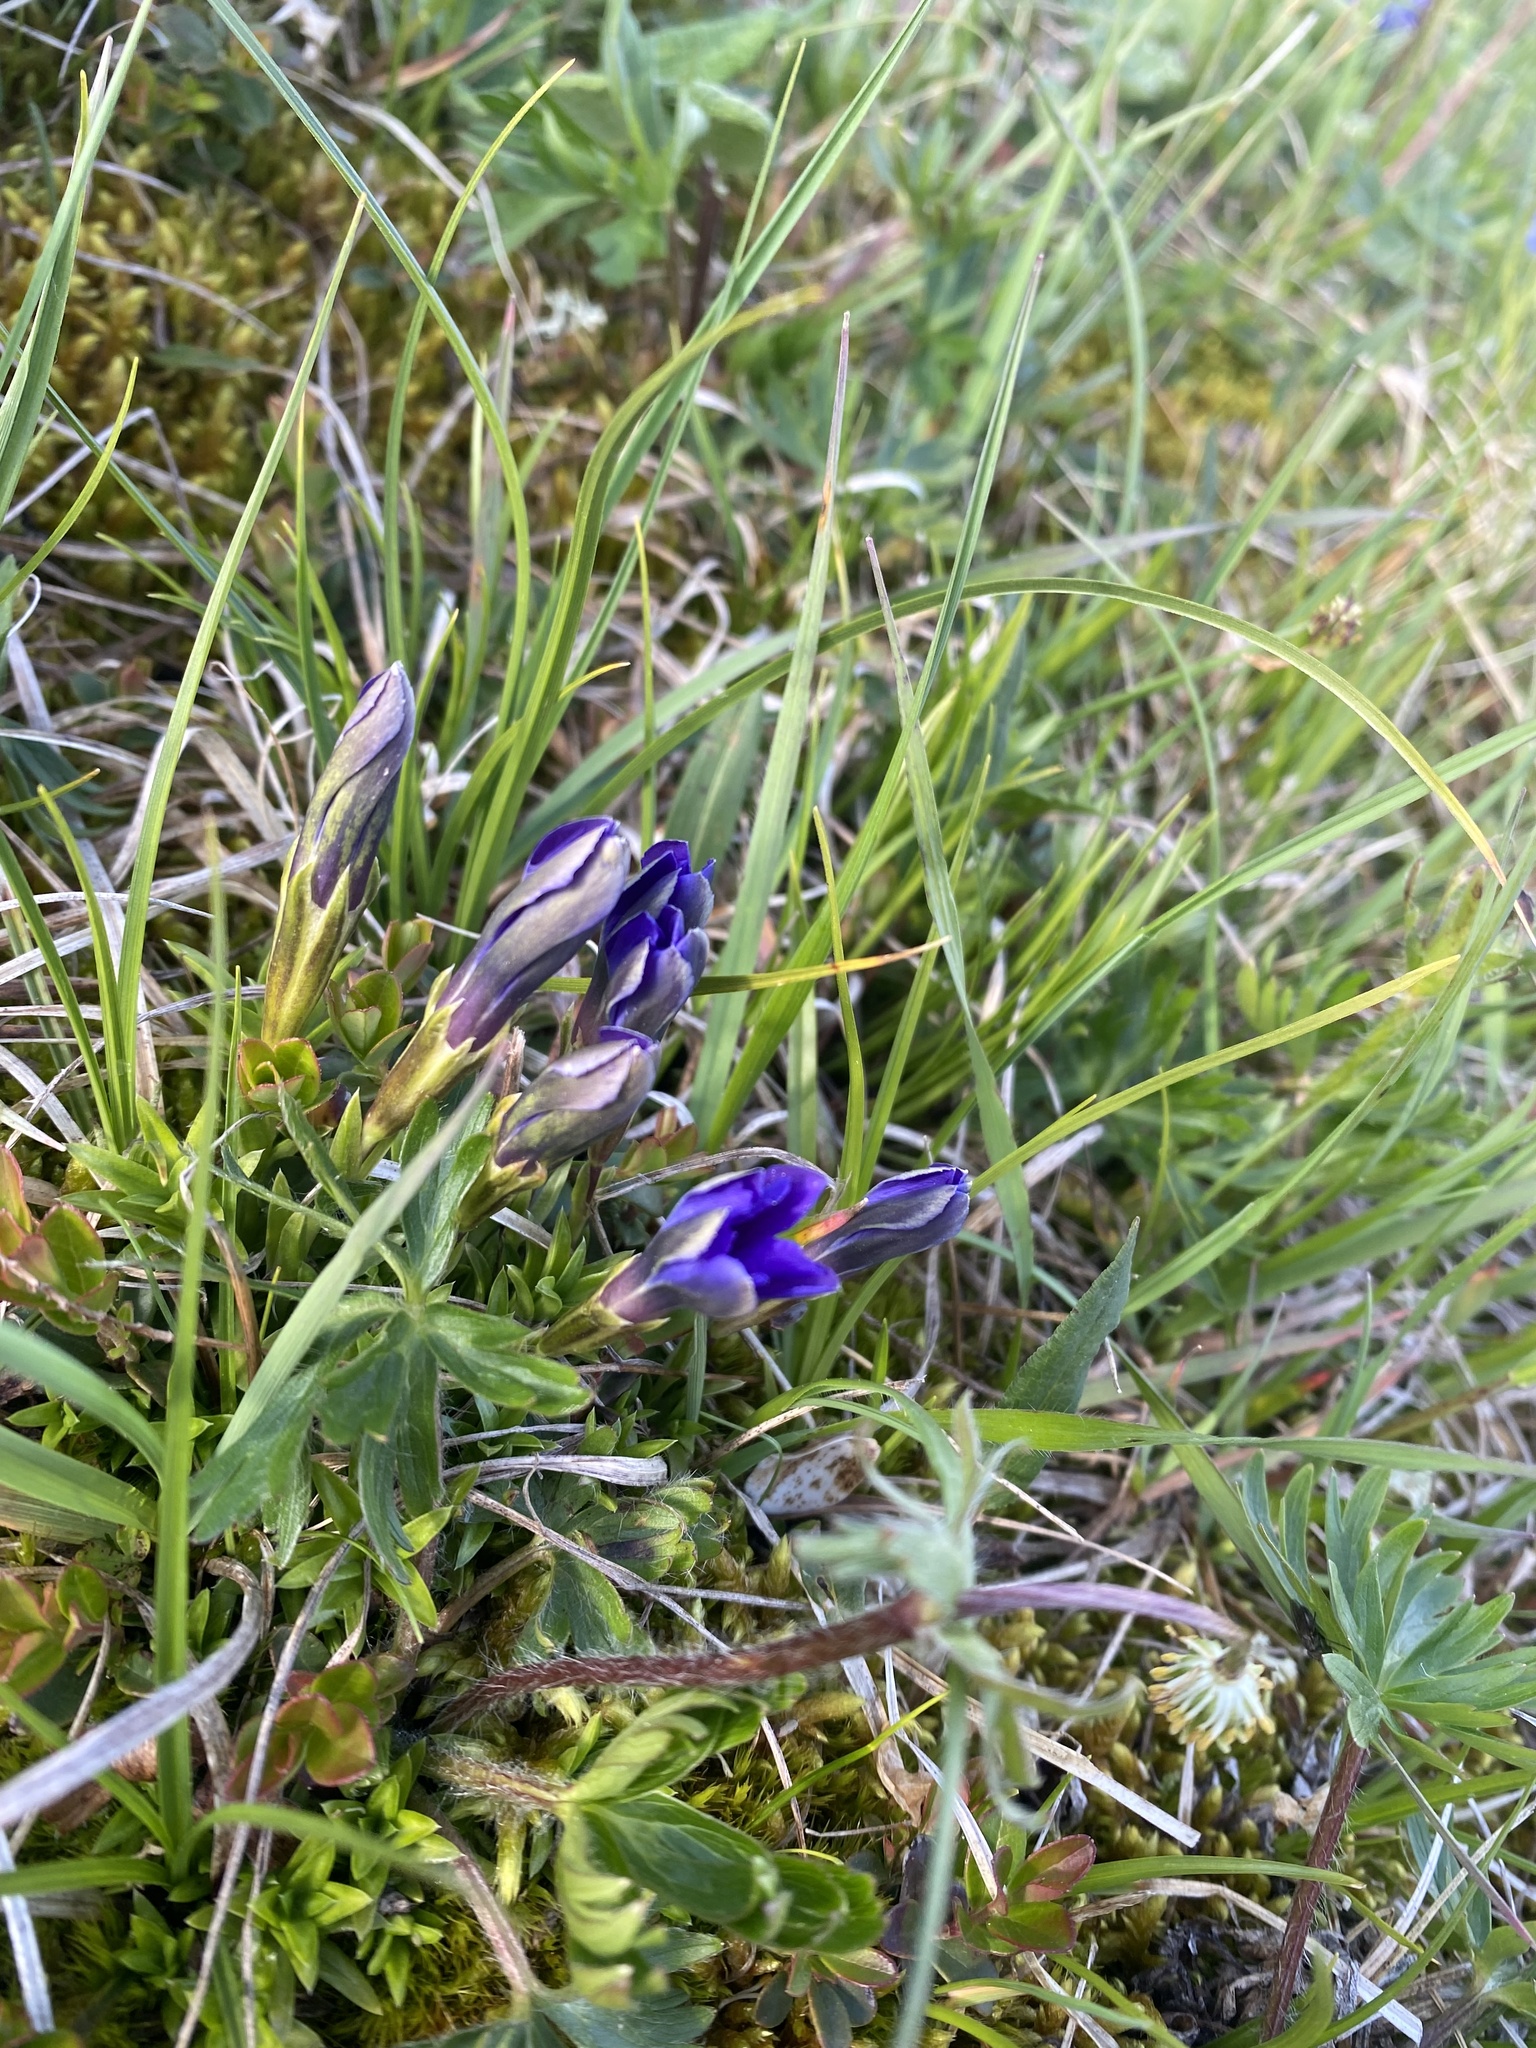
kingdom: Plantae
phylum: Tracheophyta
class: Magnoliopsida
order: Gentianales
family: Gentianaceae
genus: Gentiana
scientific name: Gentiana dshimilensis
